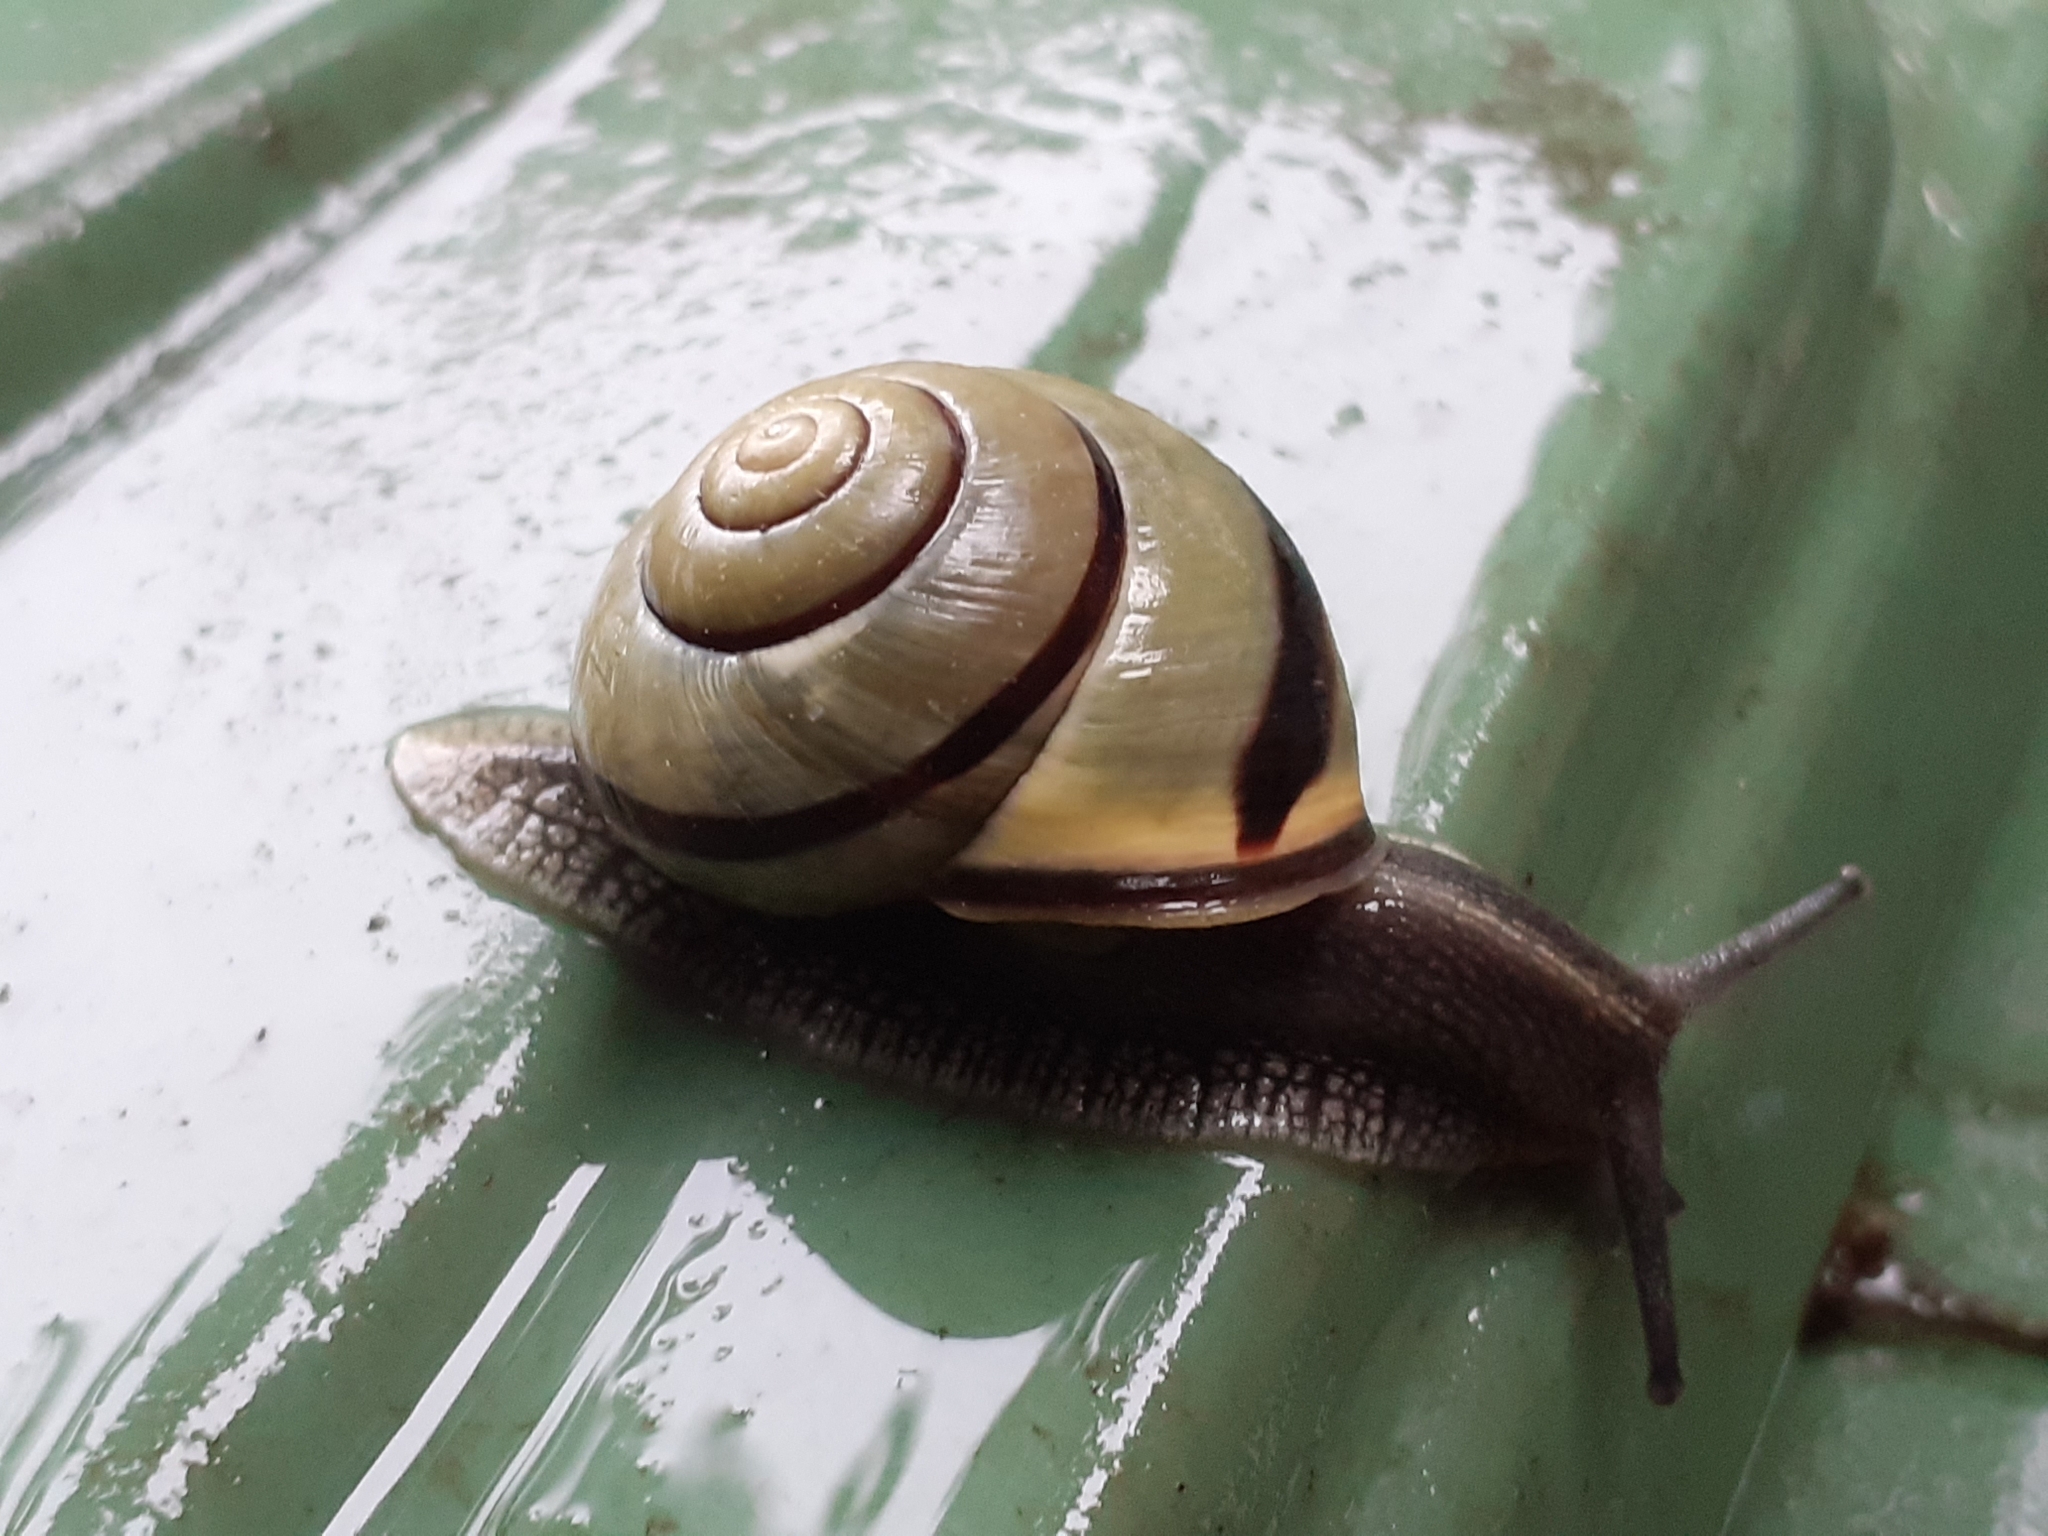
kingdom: Animalia
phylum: Mollusca
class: Gastropoda
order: Stylommatophora
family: Helicidae
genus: Cepaea
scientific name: Cepaea nemoralis
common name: Grovesnail
